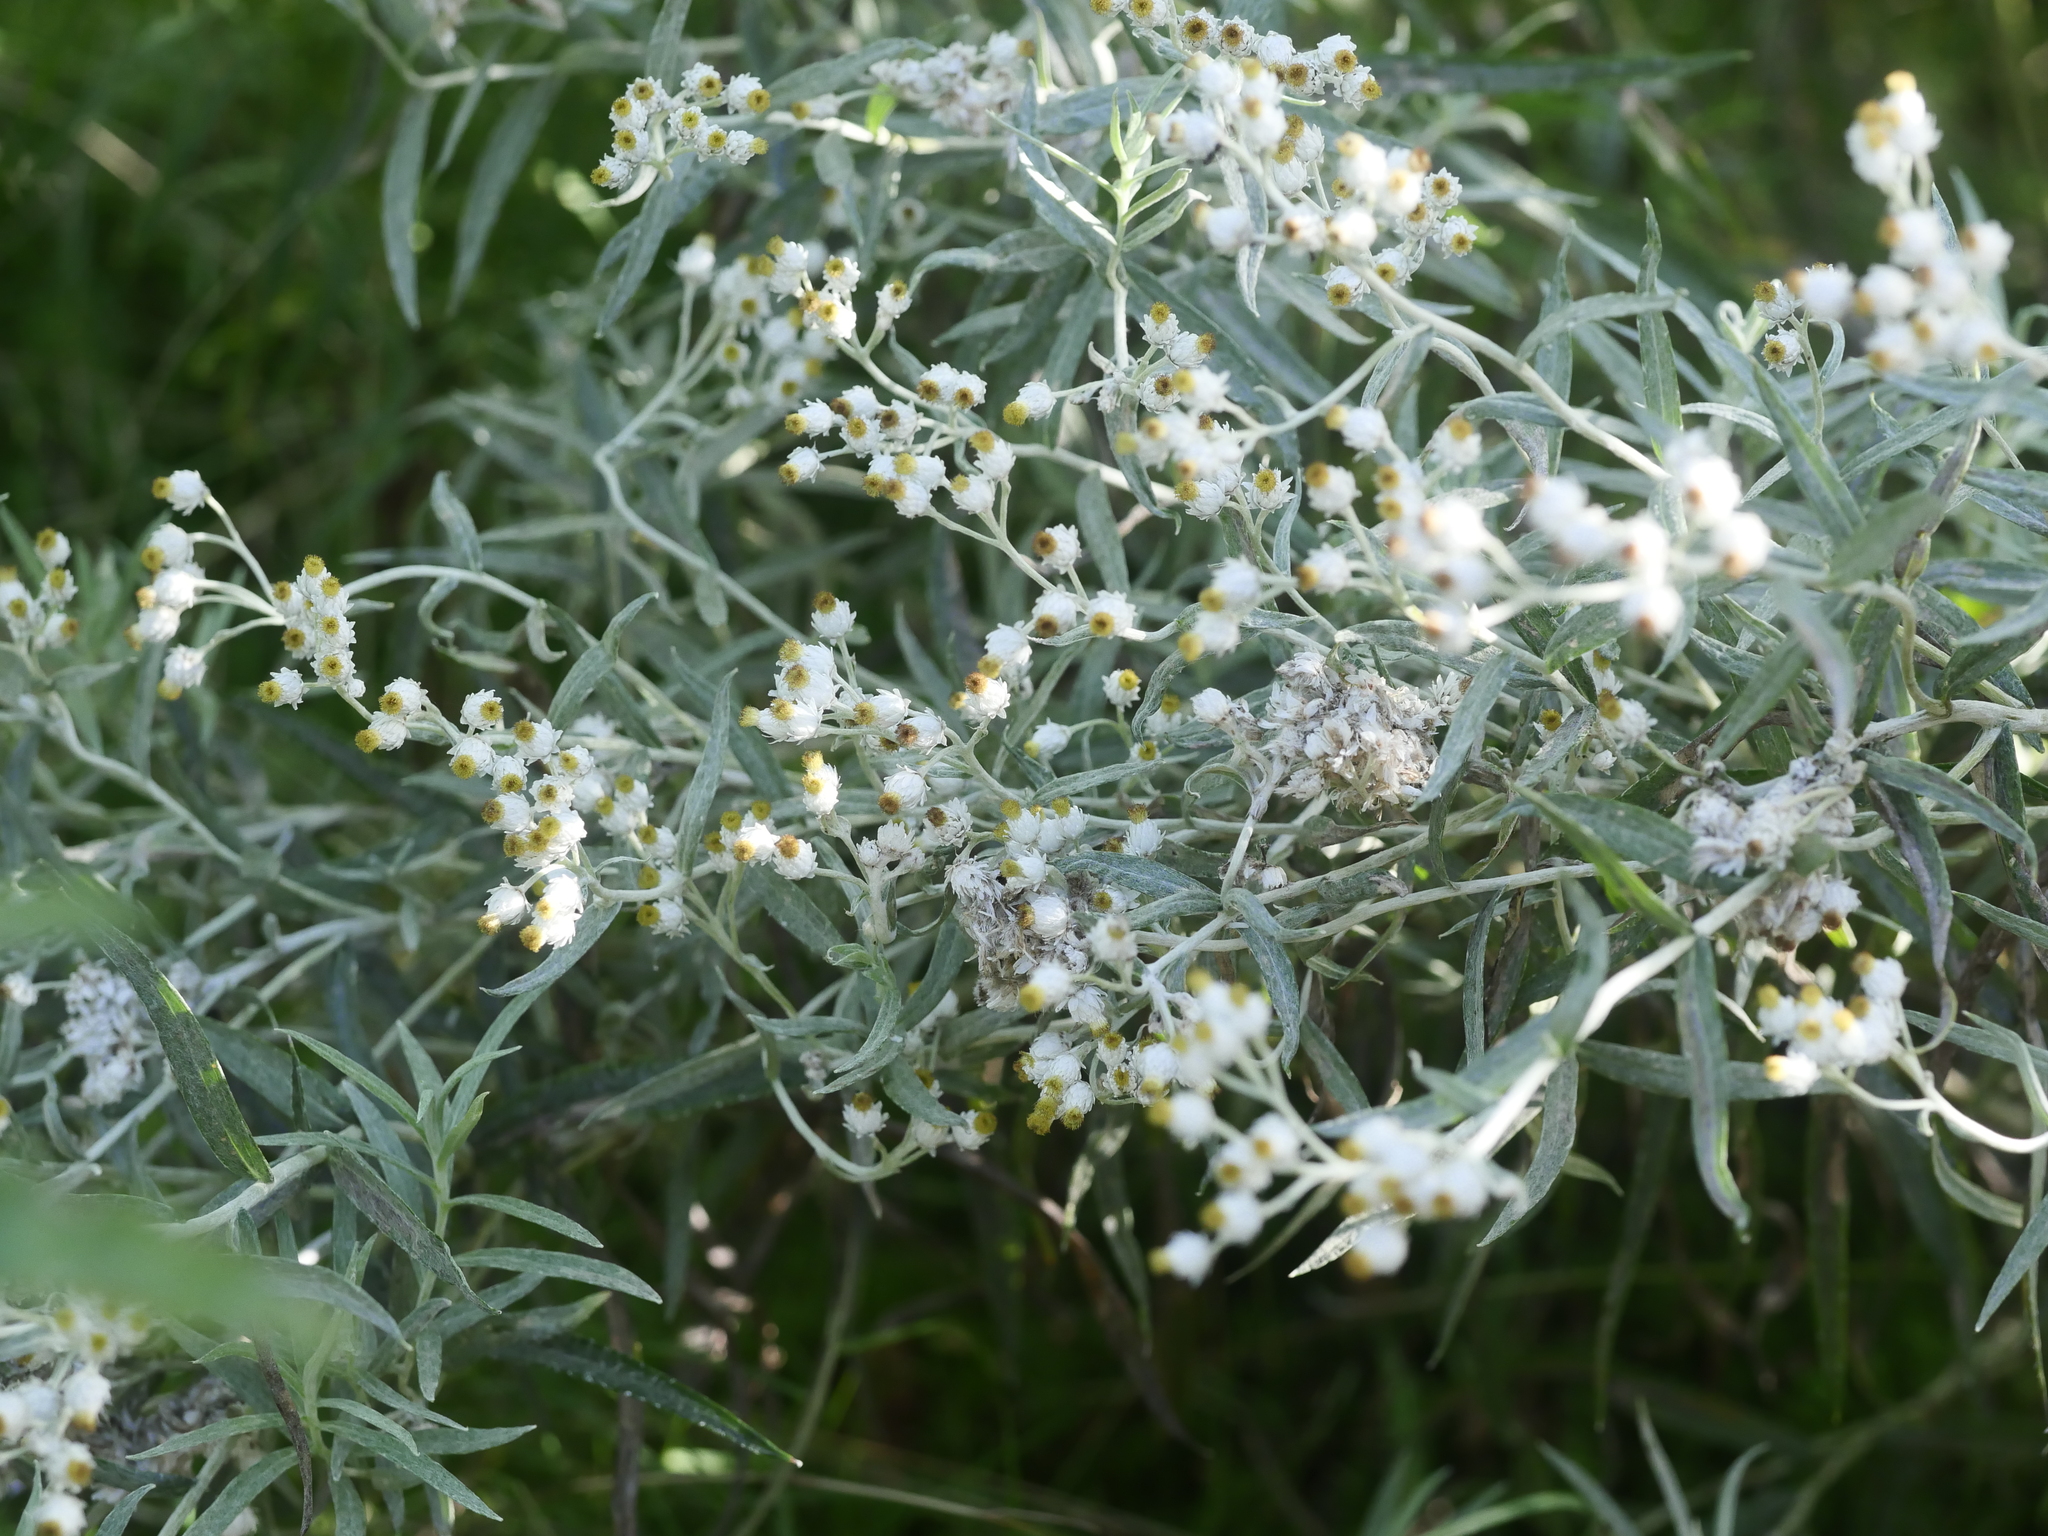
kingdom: Plantae
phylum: Tracheophyta
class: Magnoliopsida
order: Asterales
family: Asteraceae
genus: Anaphalis
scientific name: Anaphalis margaritacea
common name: Pearly everlasting
